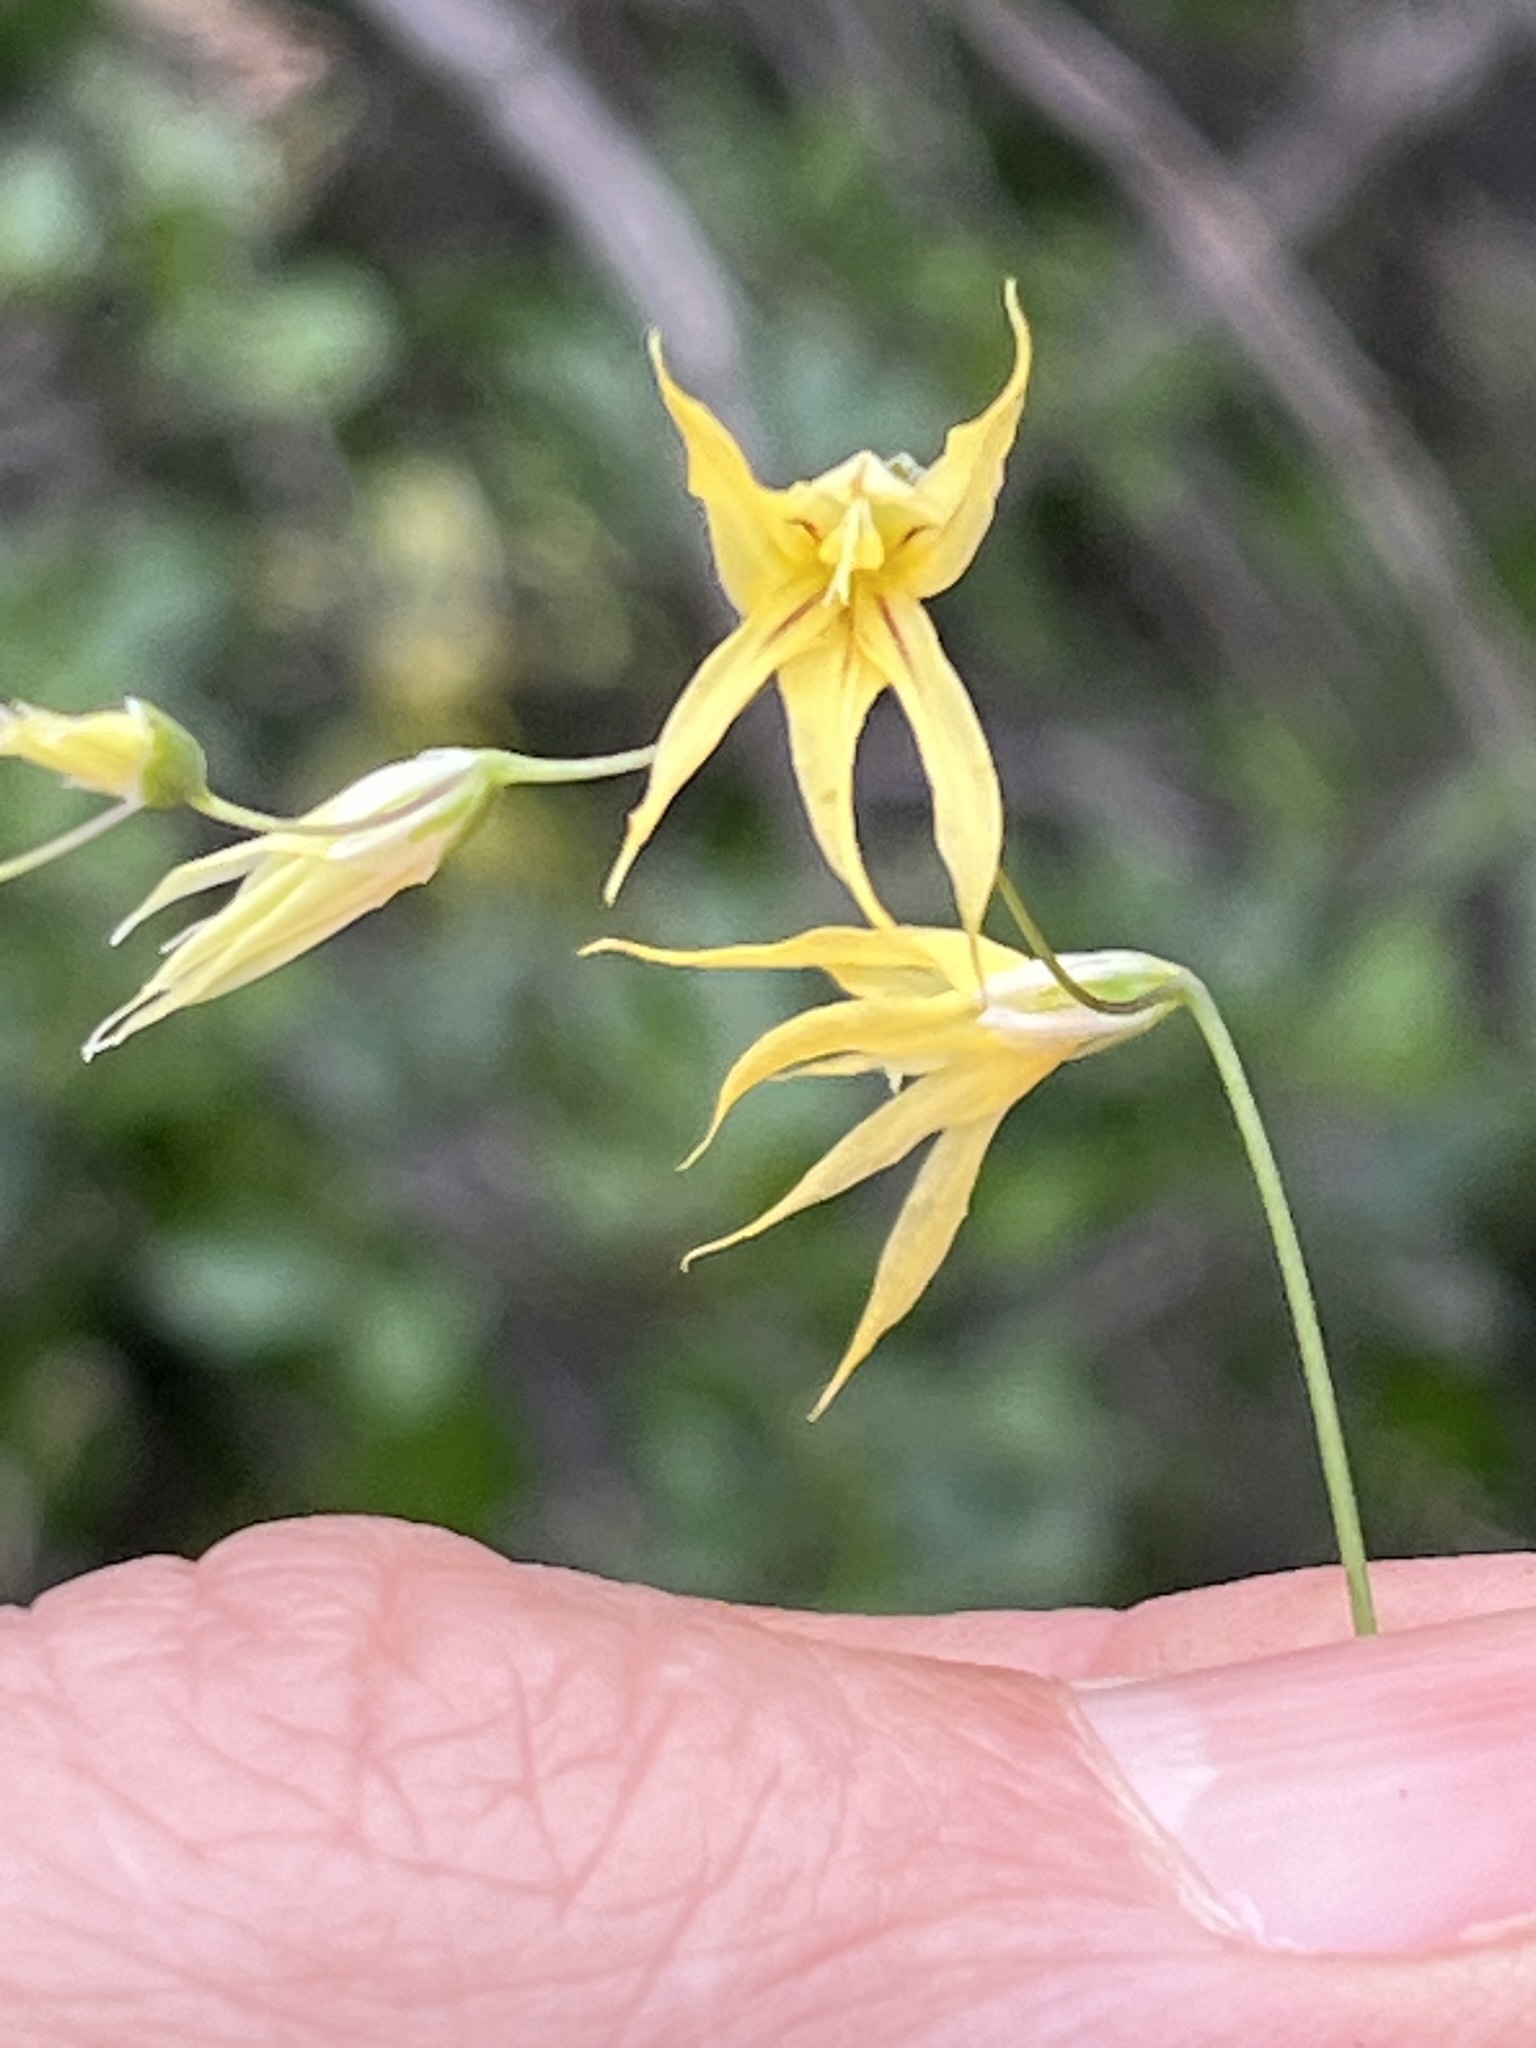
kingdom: Plantae
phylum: Tracheophyta
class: Liliopsida
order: Asparagales
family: Iridaceae
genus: Melasphaerula
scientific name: Melasphaerula graminea
